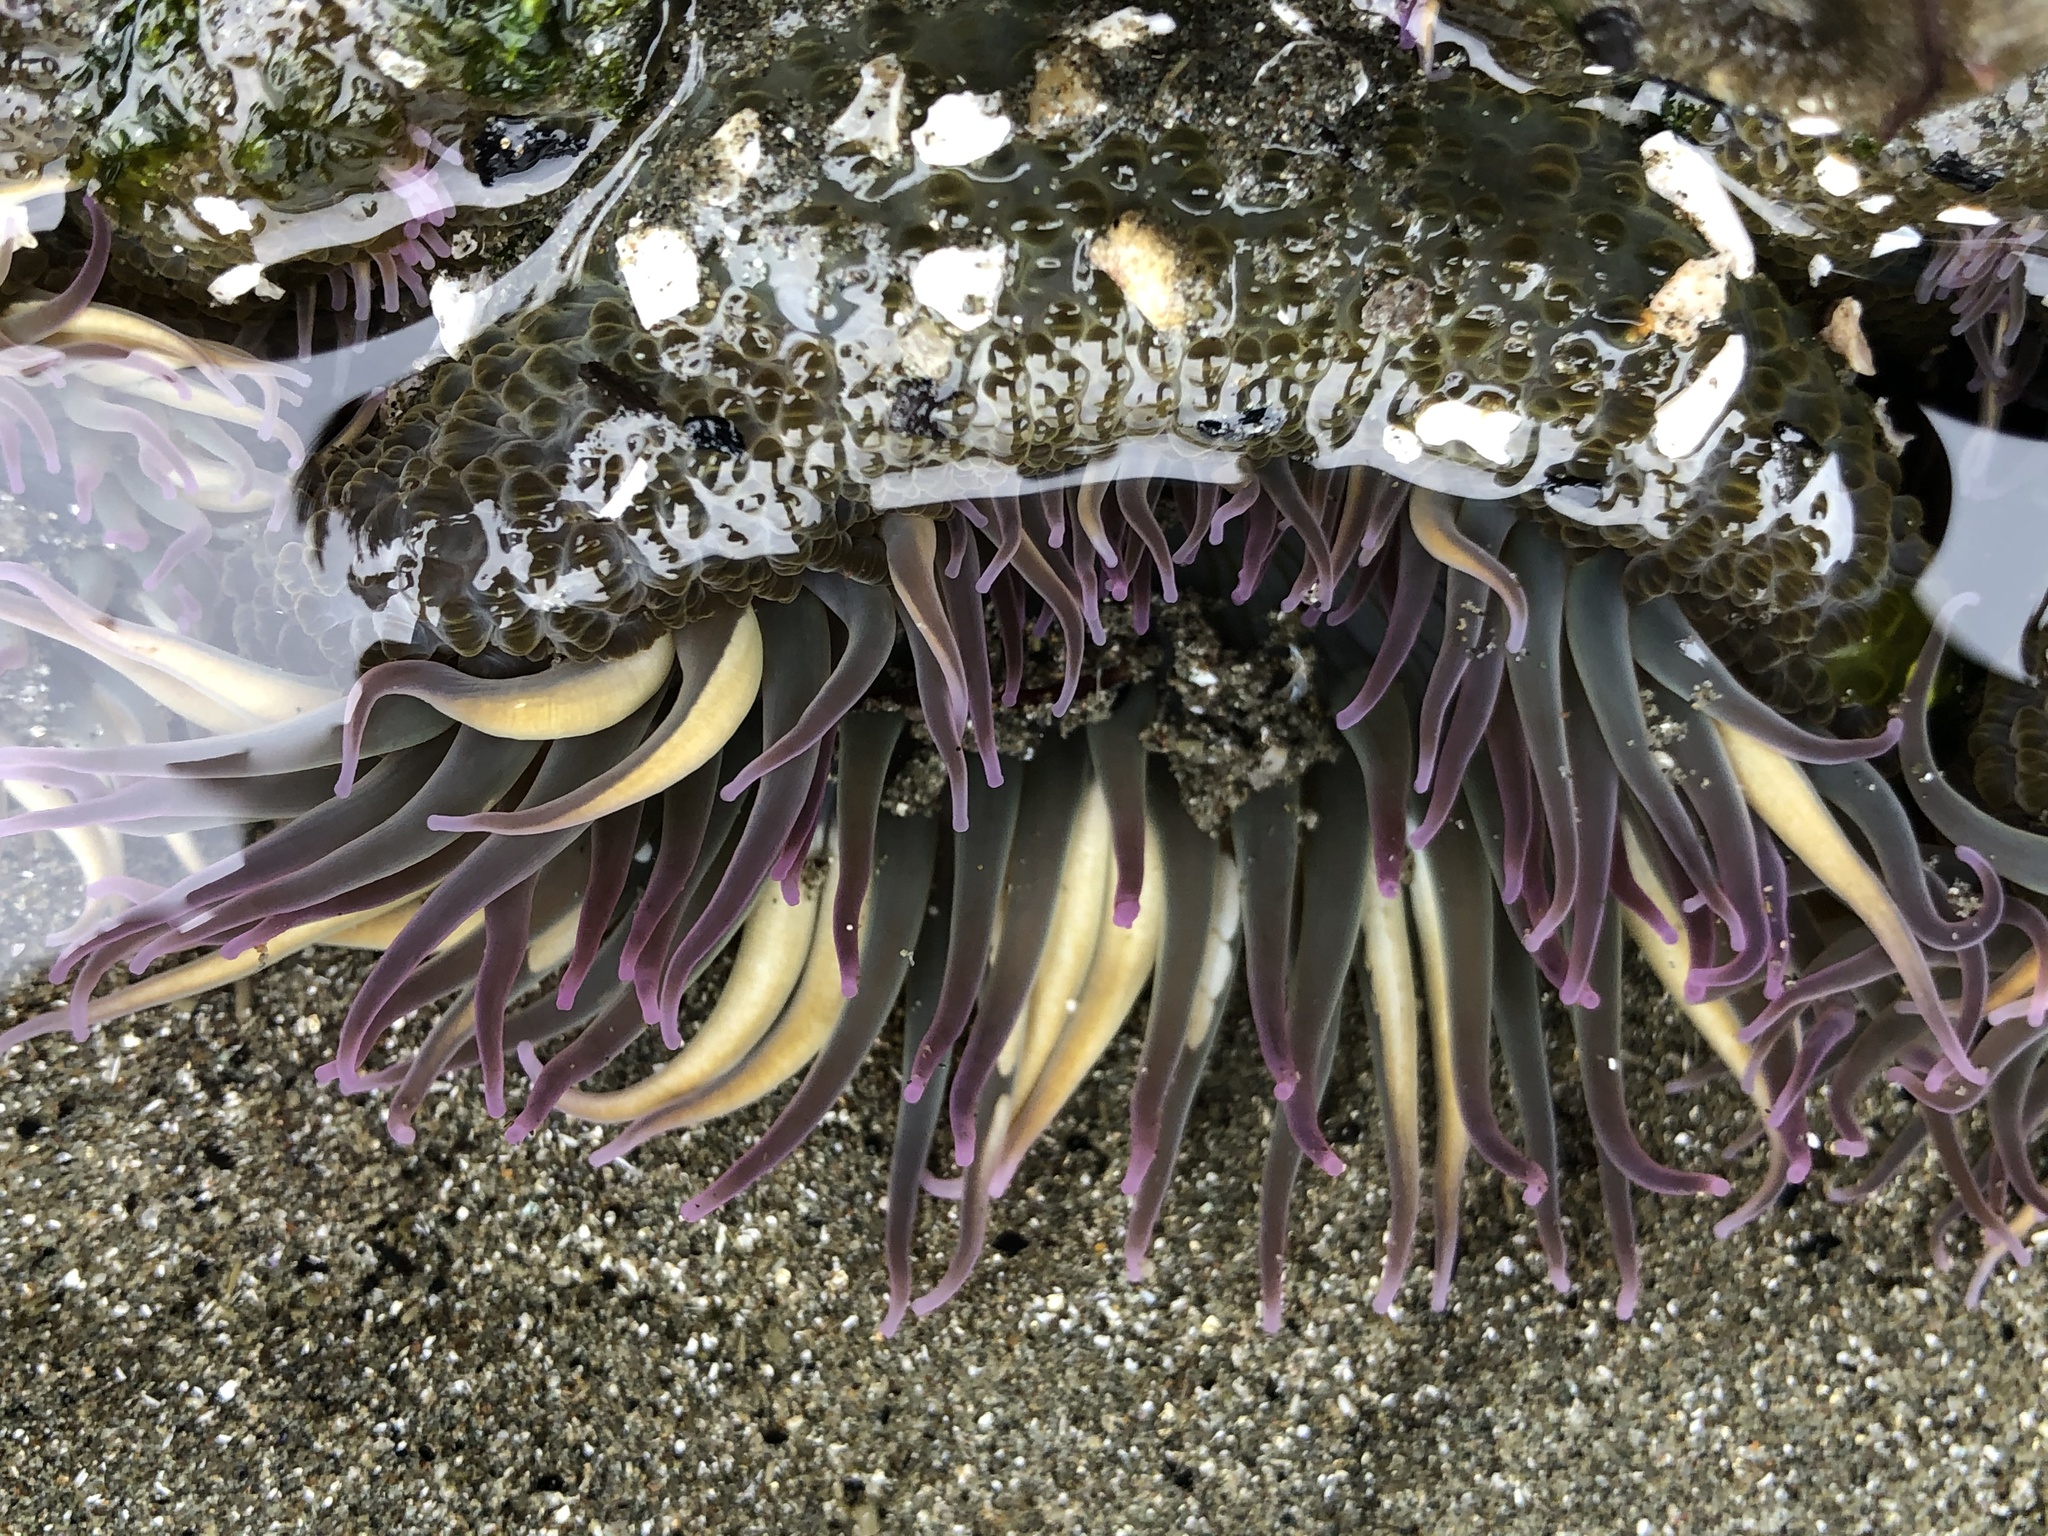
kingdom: Animalia
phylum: Cnidaria
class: Anthozoa
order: Actiniaria
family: Actiniidae
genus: Anthopleura
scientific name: Anthopleura elegantissima
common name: Clonal anemone
